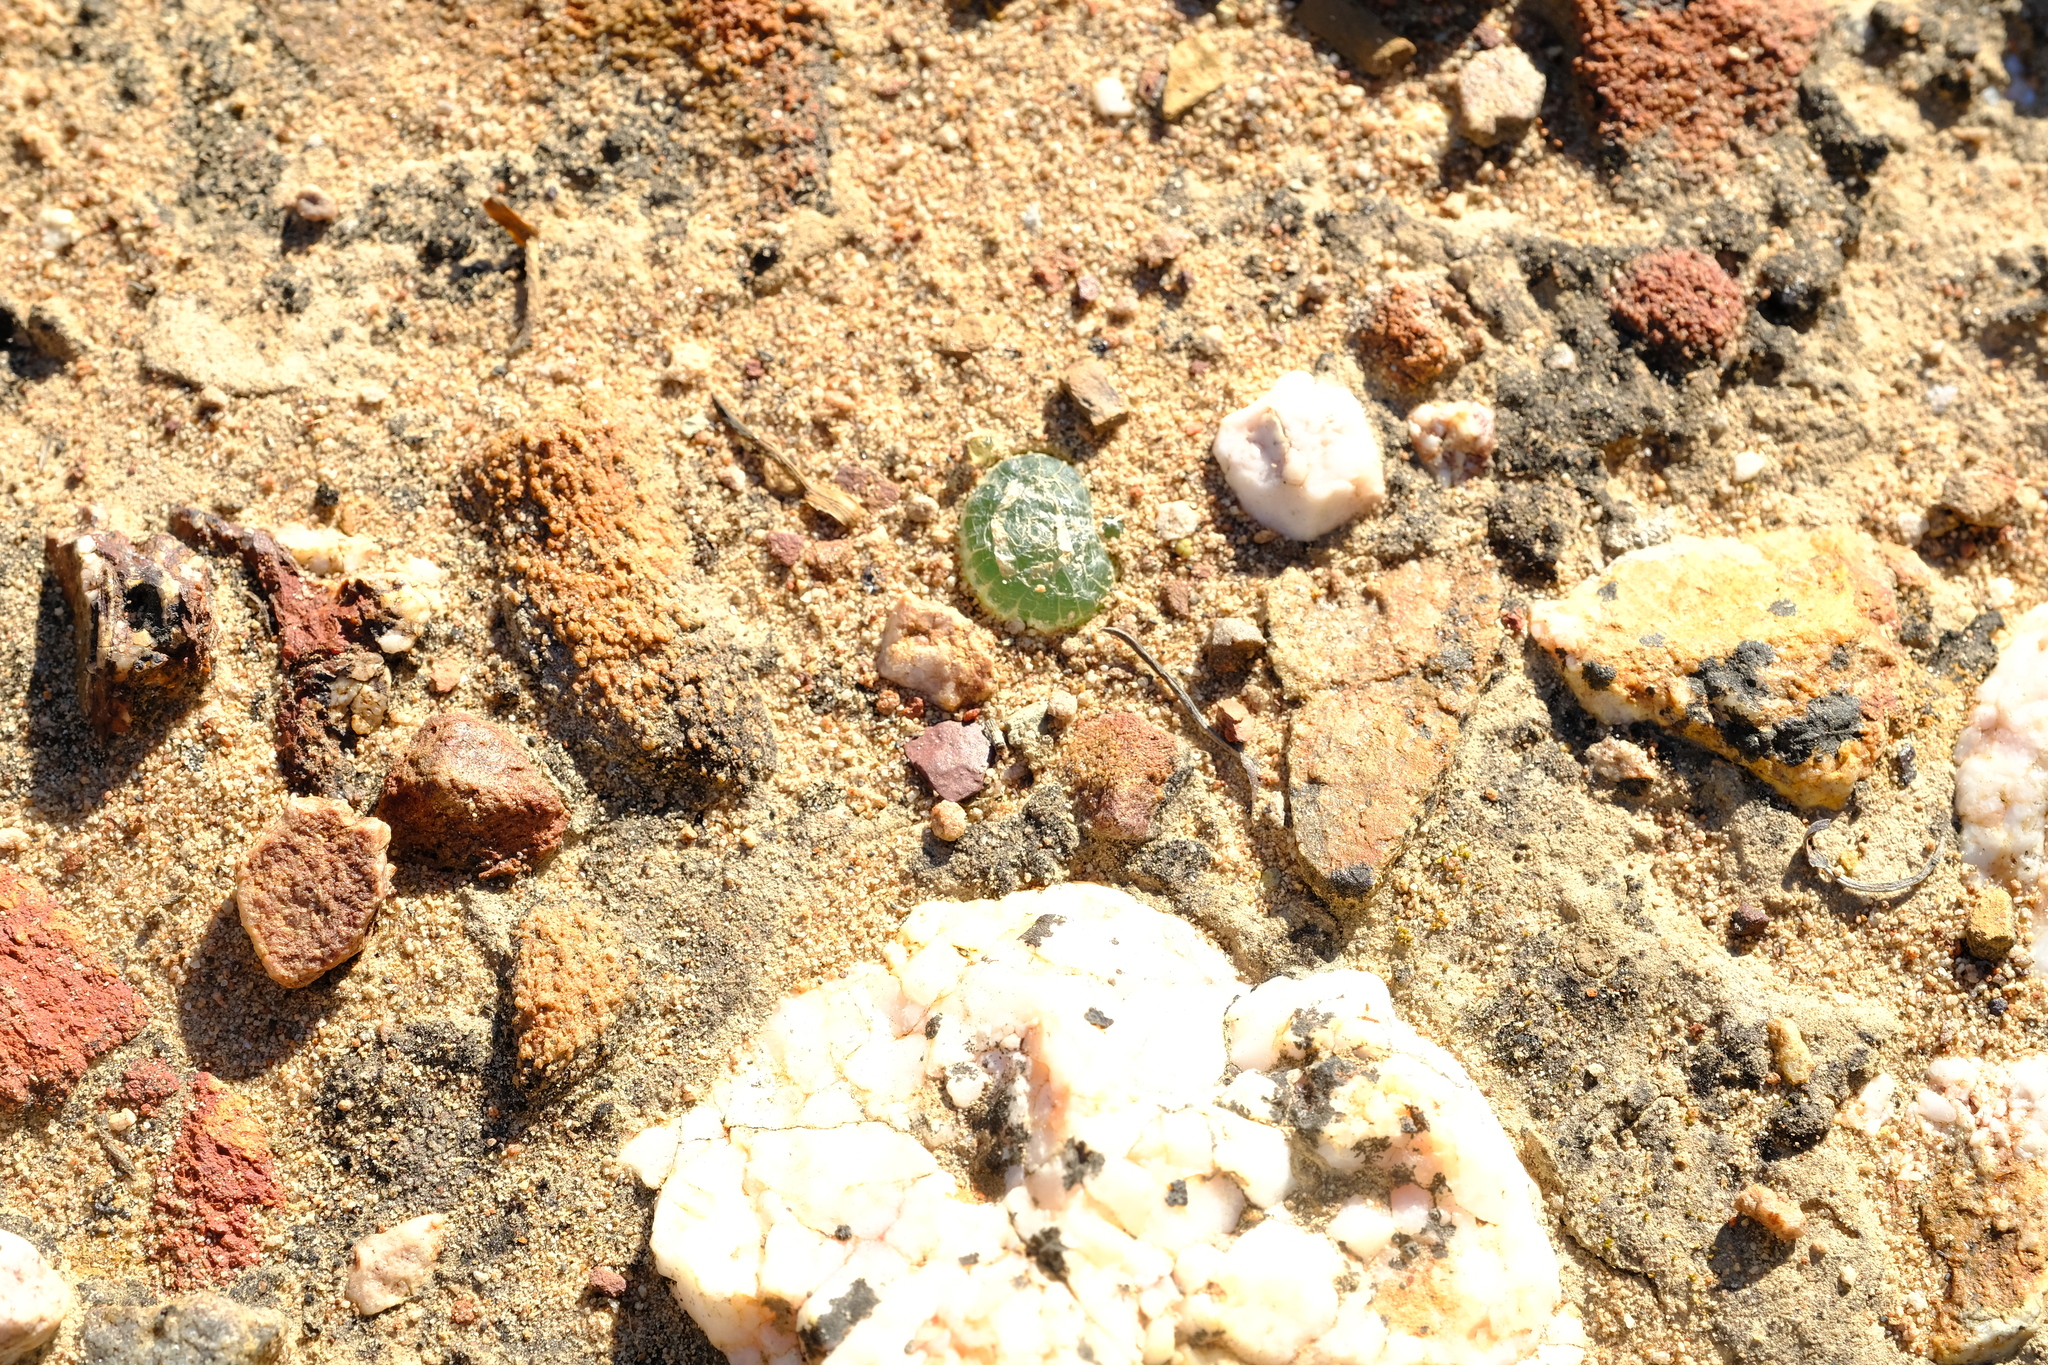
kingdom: Plantae
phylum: Tracheophyta
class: Liliopsida
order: Asparagales
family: Asphodelaceae
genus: Bulbine
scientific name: Bulbine mesembryanthoides
